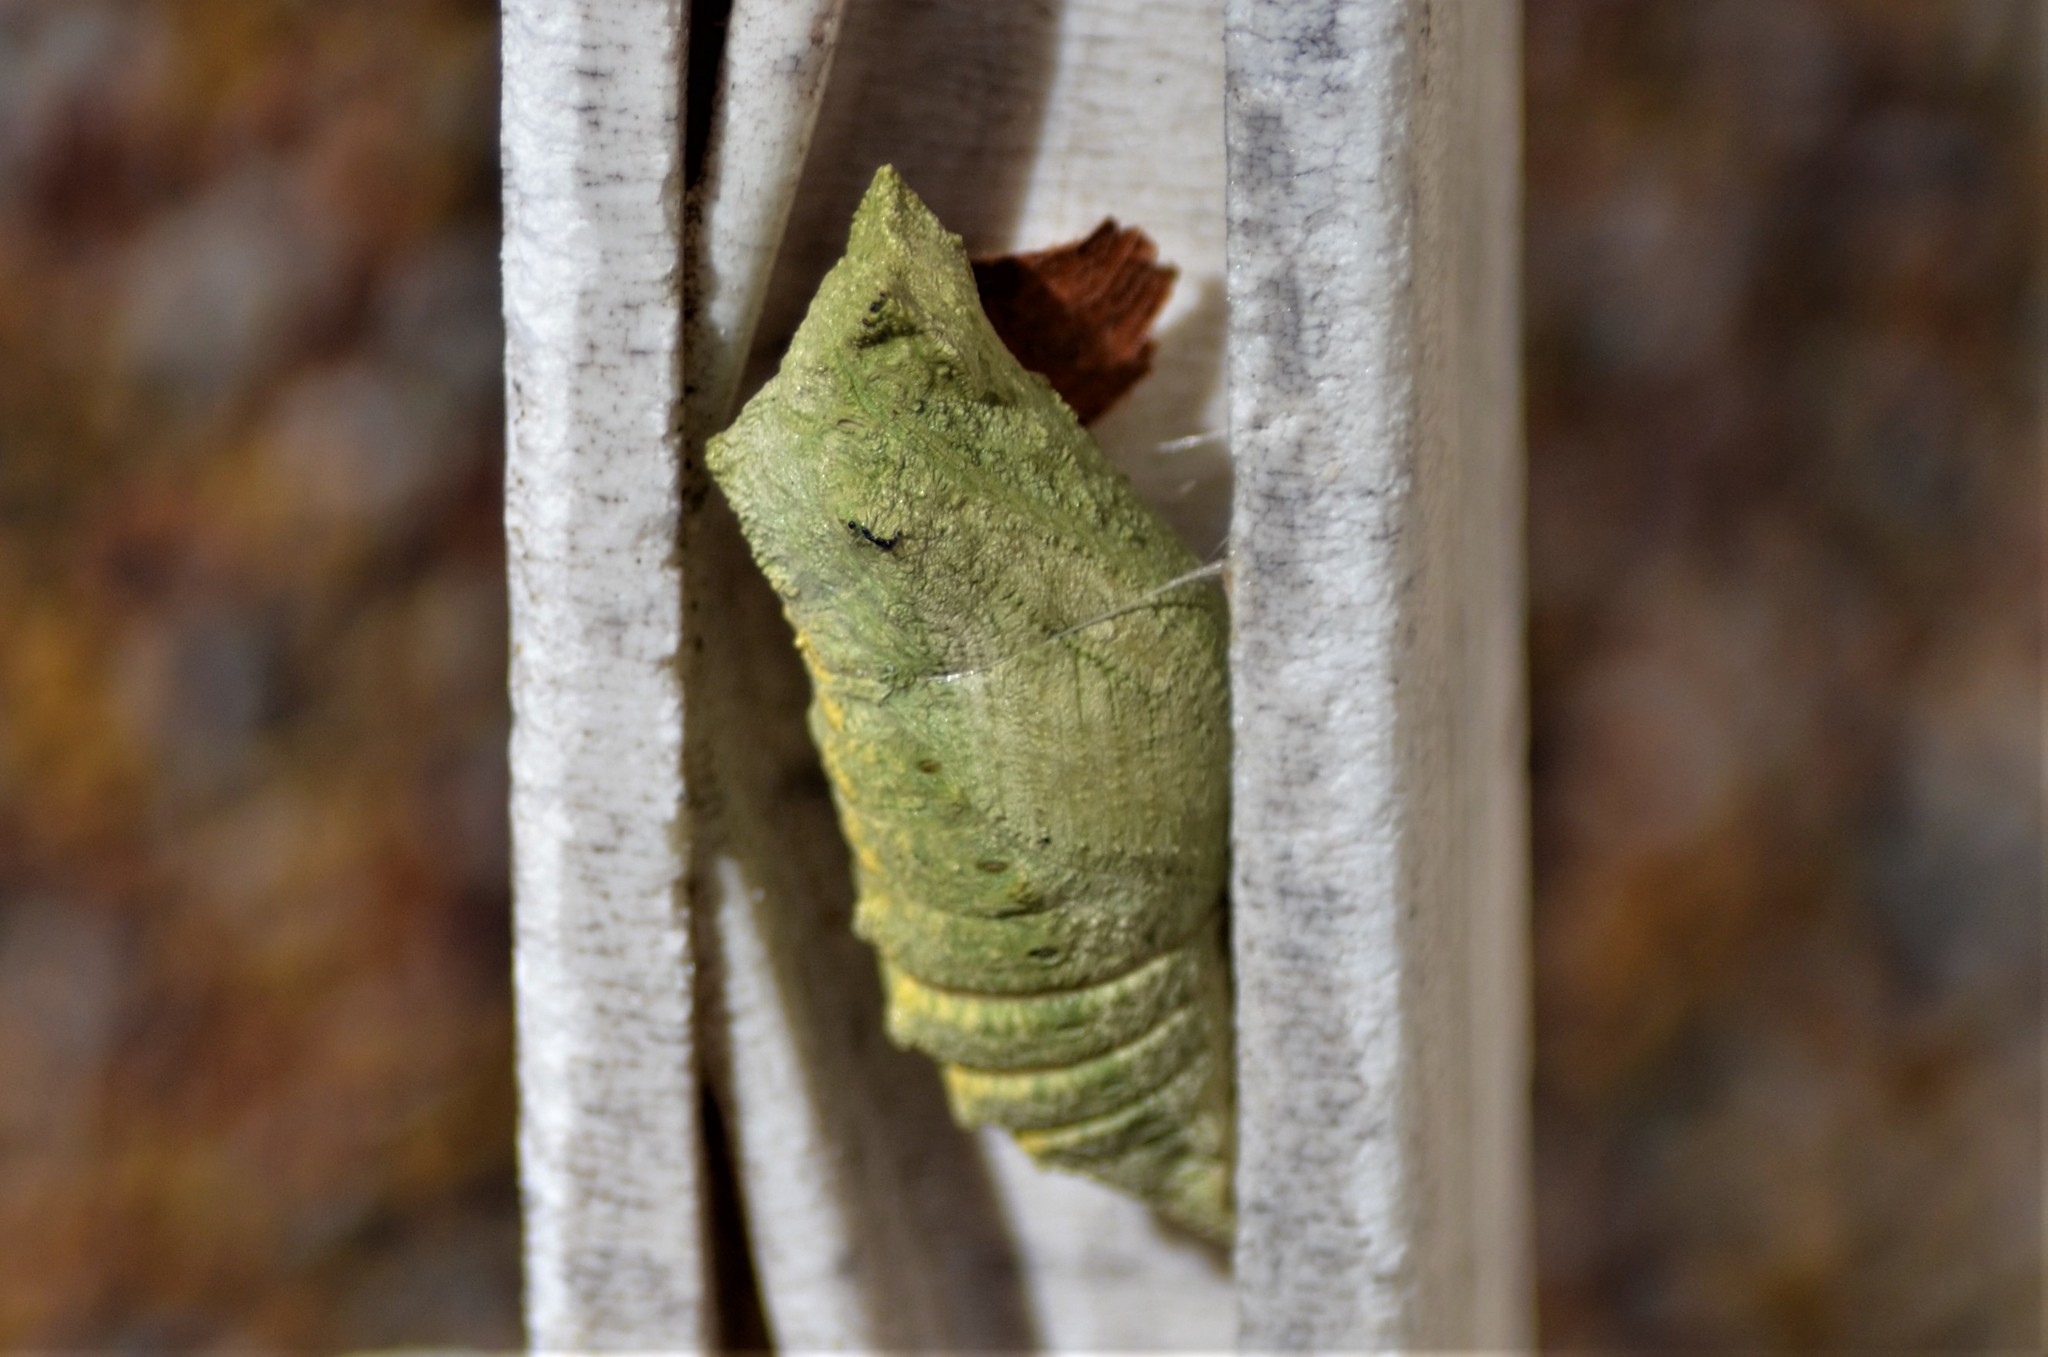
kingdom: Animalia
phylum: Arthropoda
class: Insecta
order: Lepidoptera
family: Papilionidae
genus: Papilio
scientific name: Papilio machaon
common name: Swallowtail
